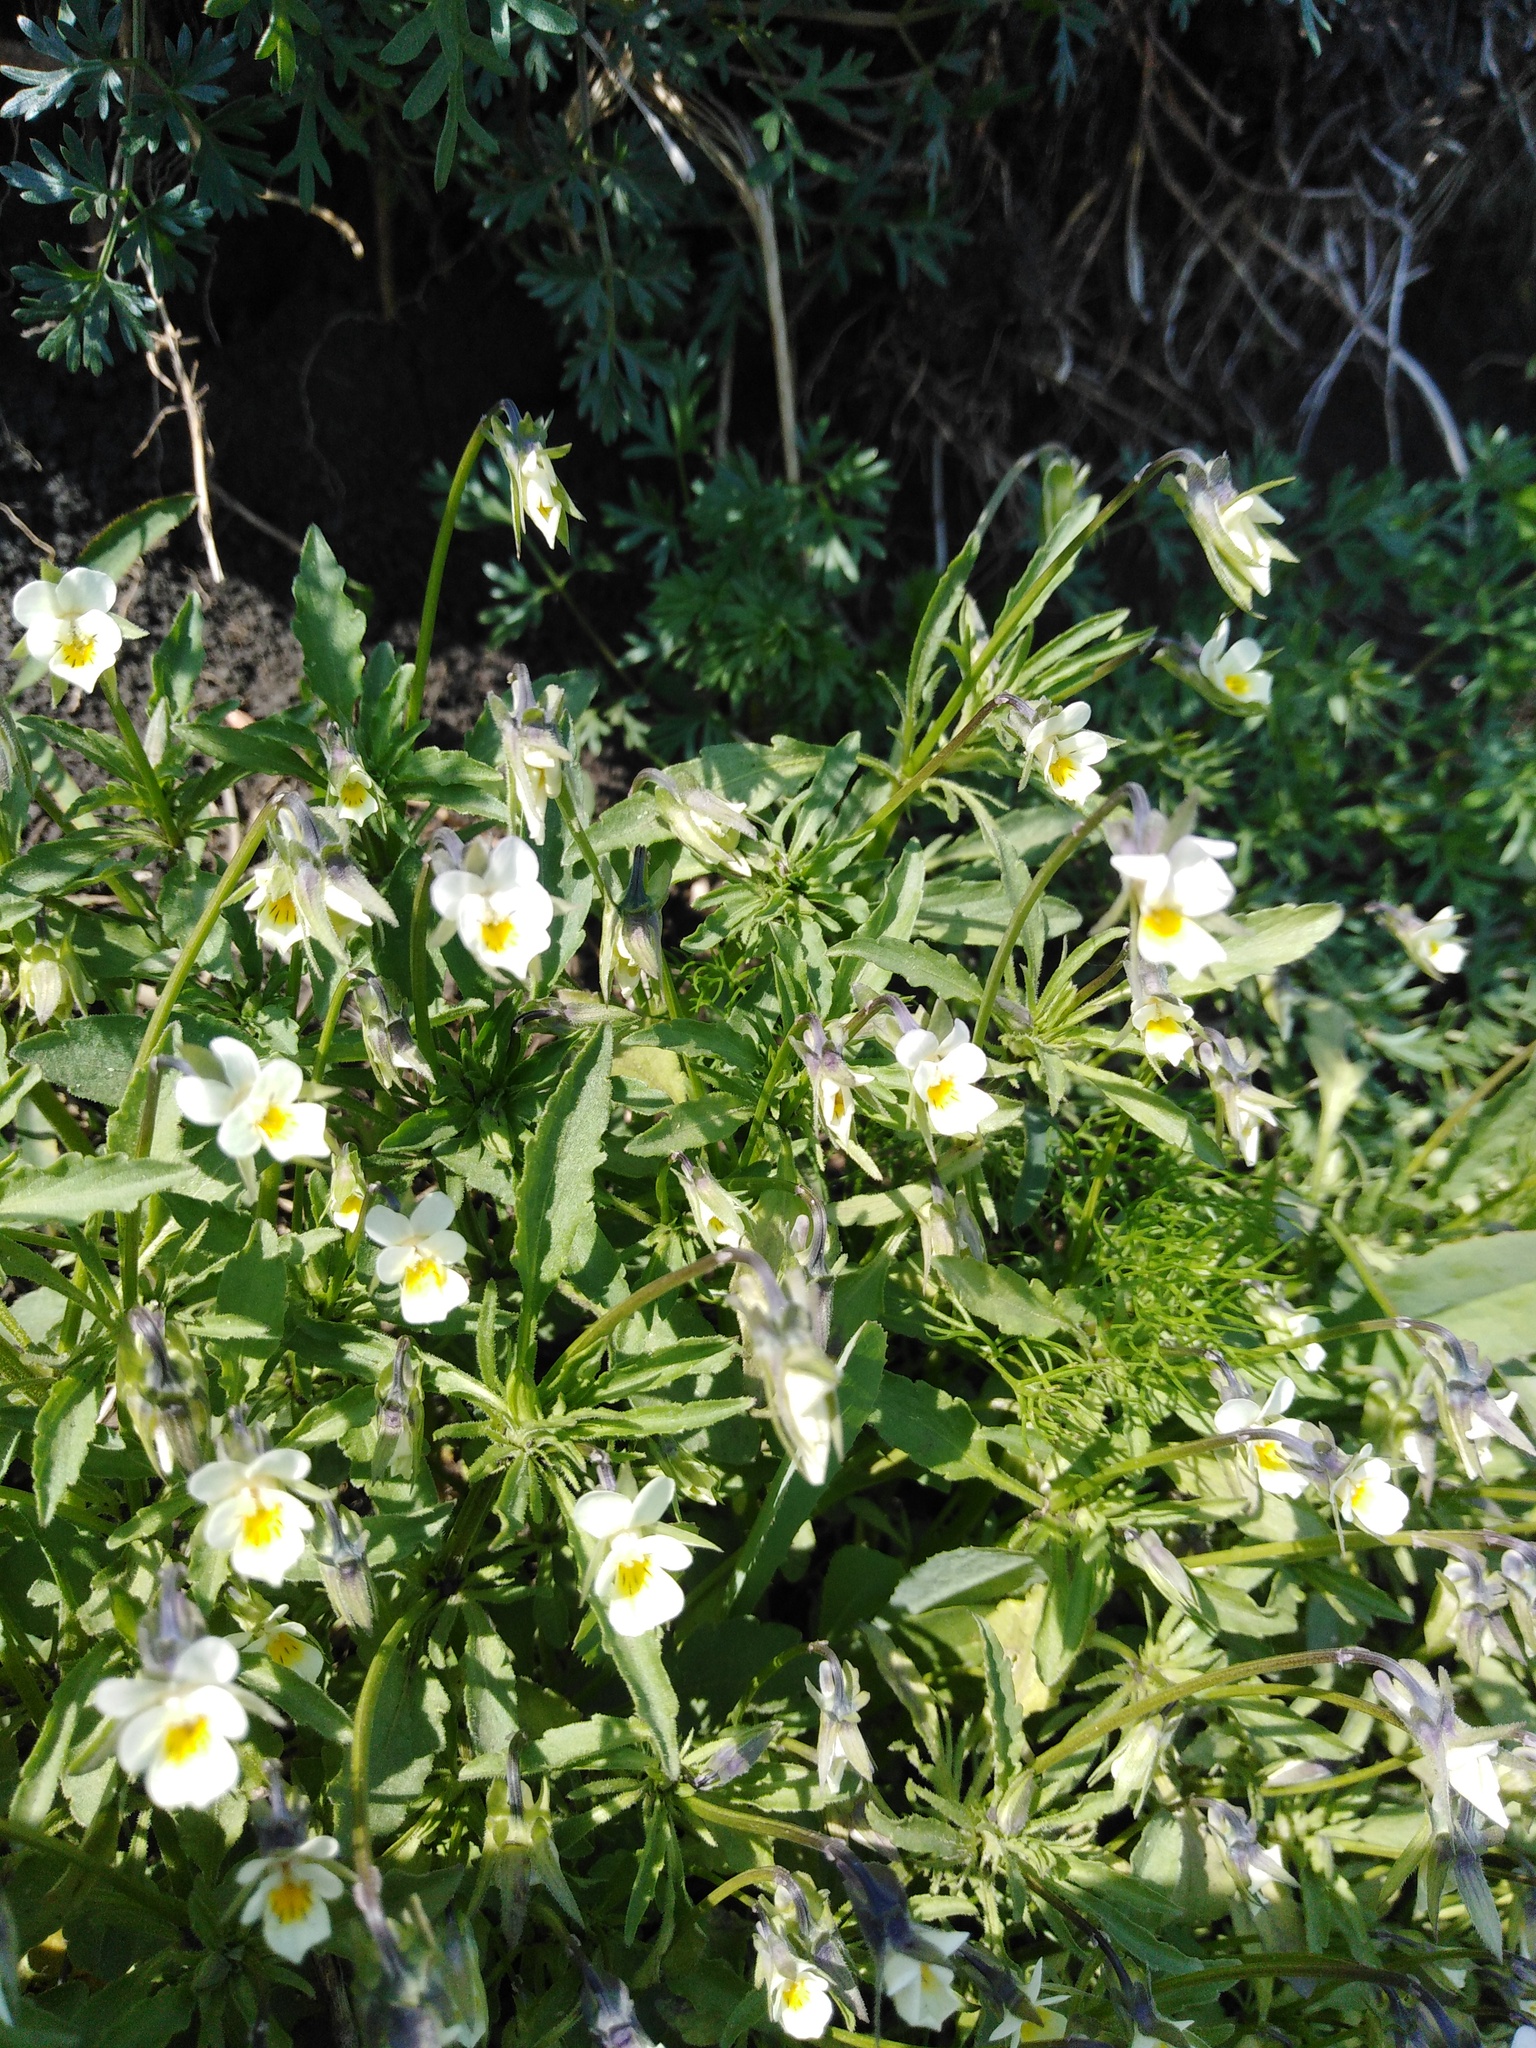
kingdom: Plantae
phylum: Tracheophyta
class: Magnoliopsida
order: Malpighiales
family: Violaceae
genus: Viola
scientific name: Viola arvensis
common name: Field pansy
